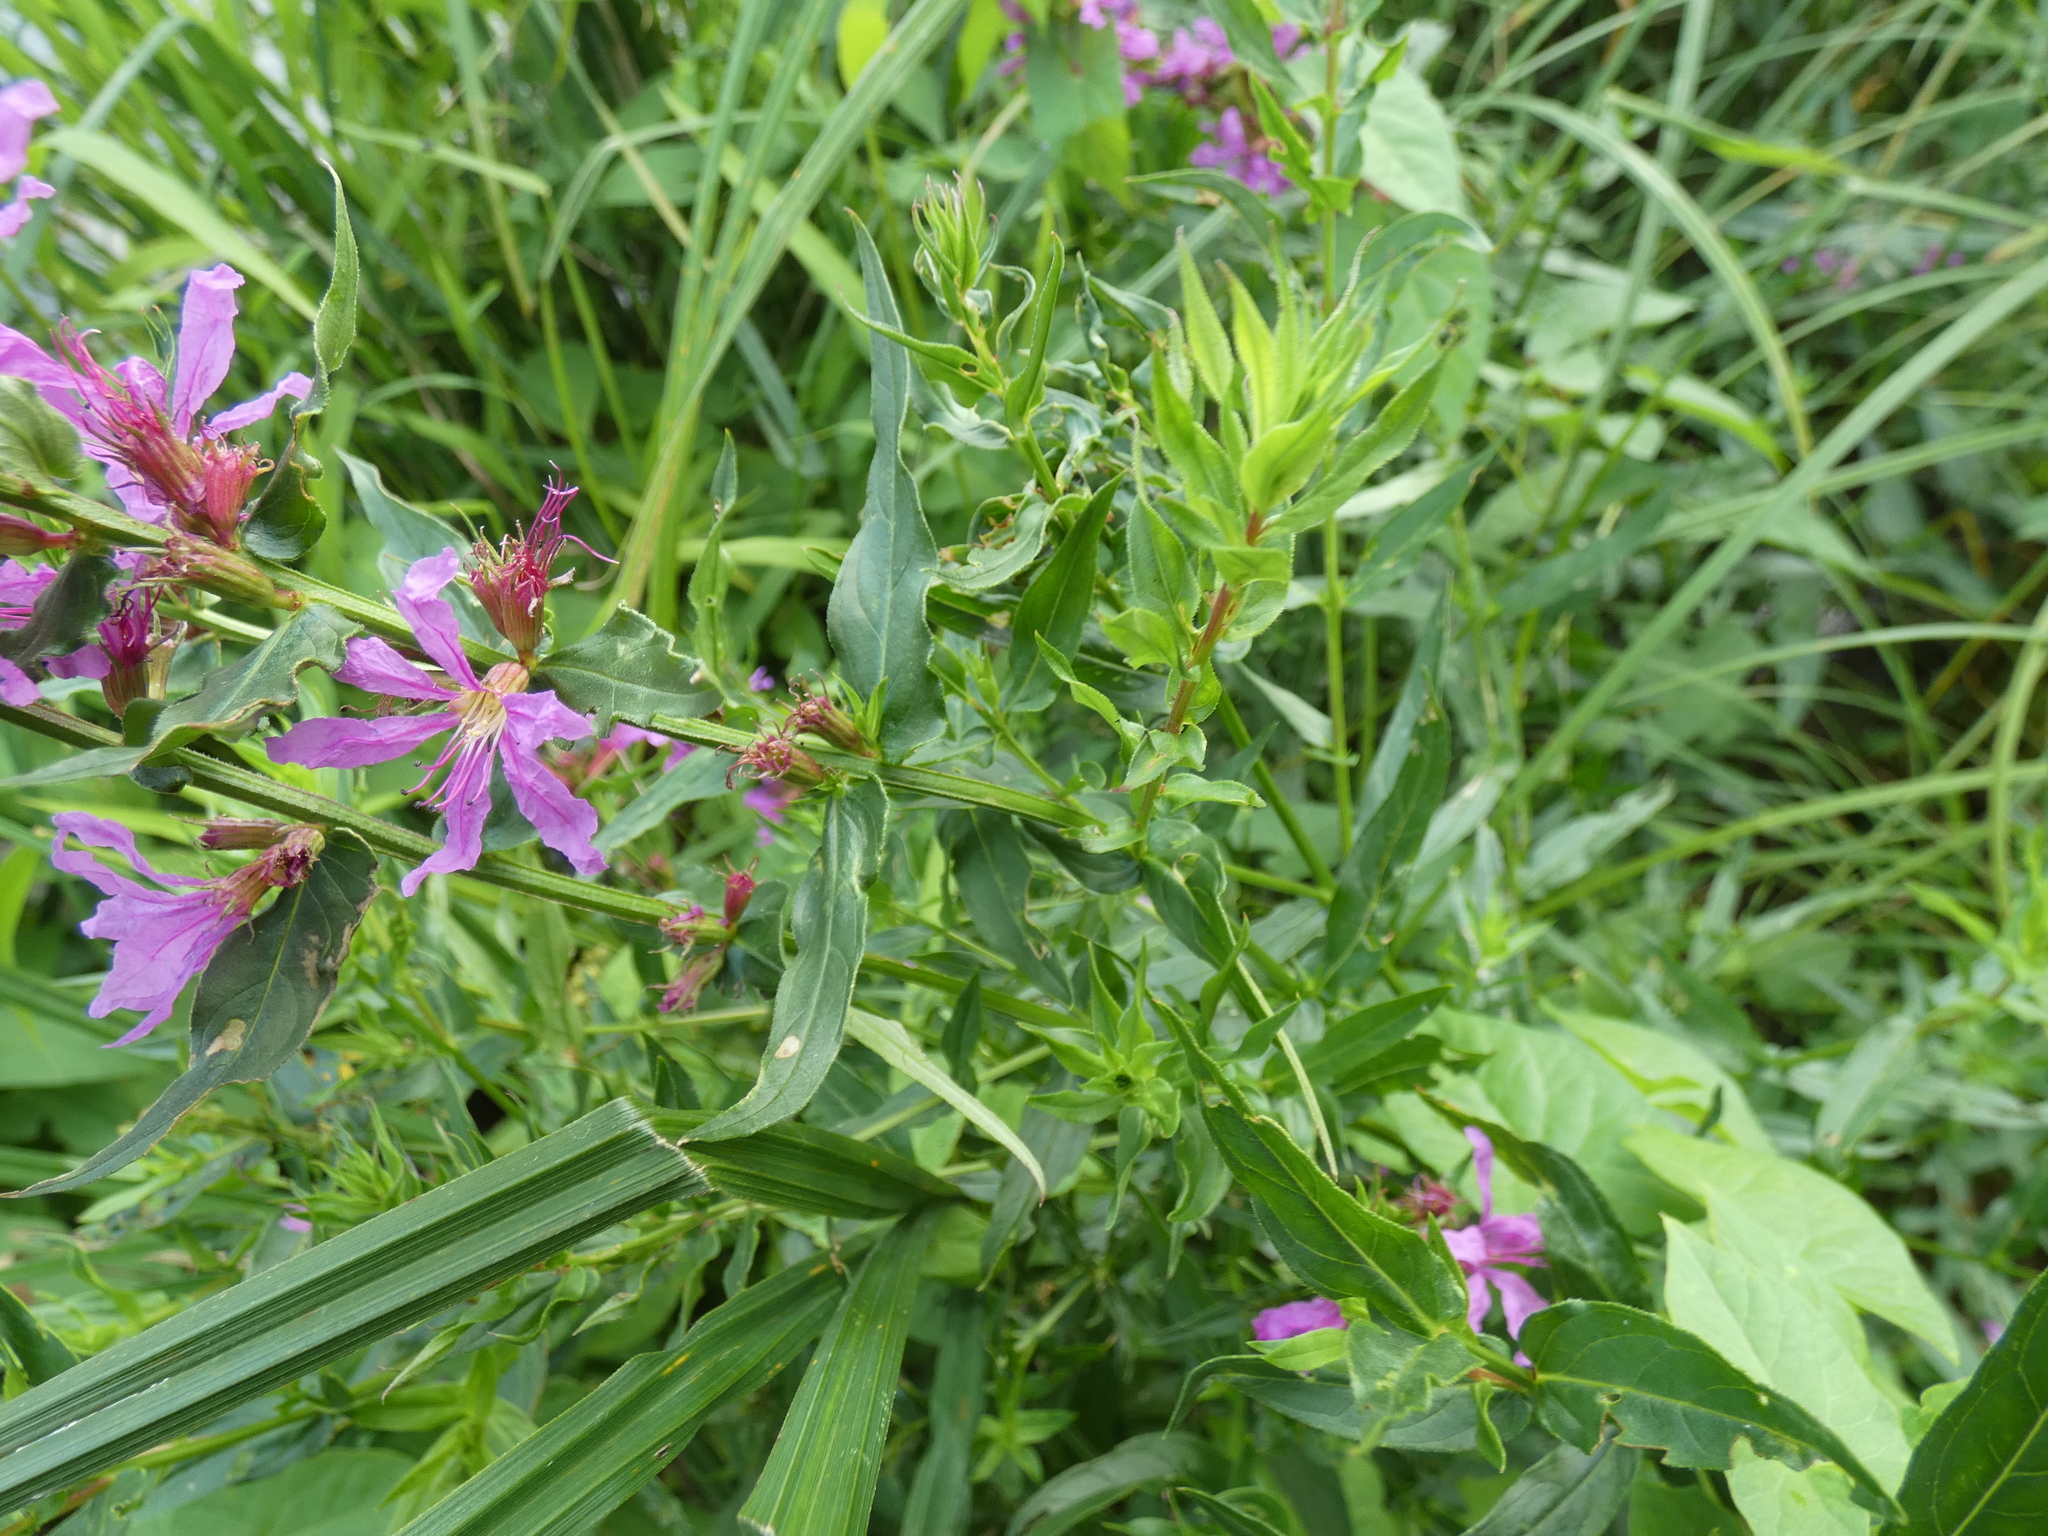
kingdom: Plantae
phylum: Tracheophyta
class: Magnoliopsida
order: Myrtales
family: Lythraceae
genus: Lythrum
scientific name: Lythrum salicaria
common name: Purple loosestrife
